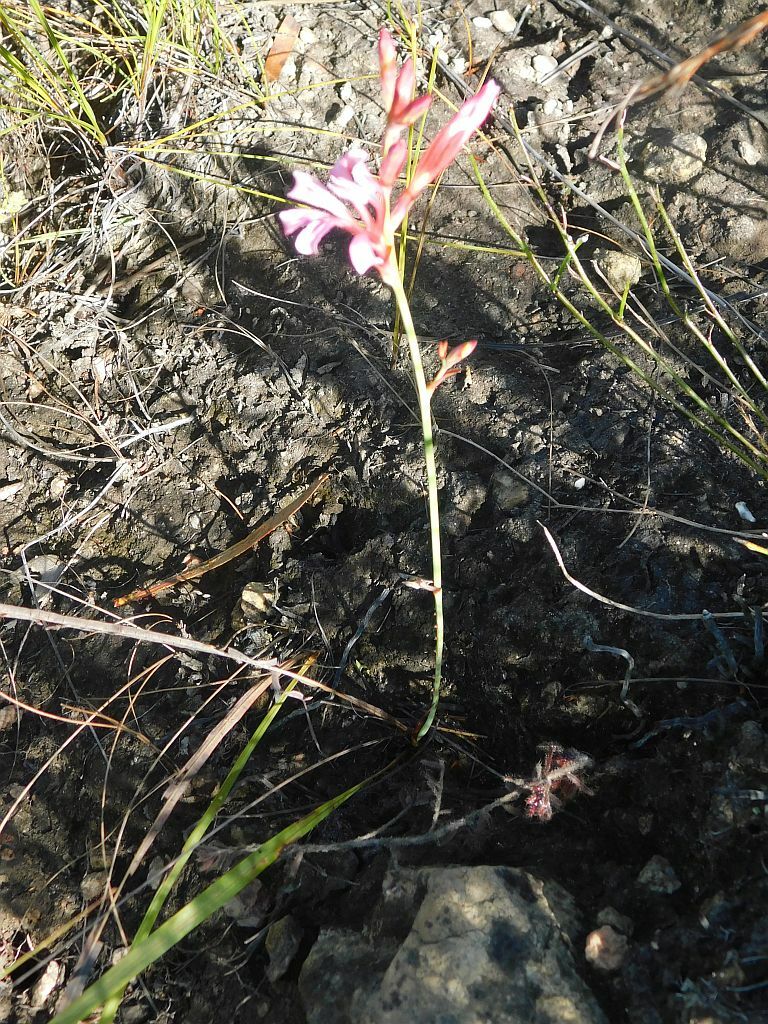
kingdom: Plantae
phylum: Tracheophyta
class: Liliopsida
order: Asparagales
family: Iridaceae
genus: Tritoniopsis
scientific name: Tritoniopsis ramosa
